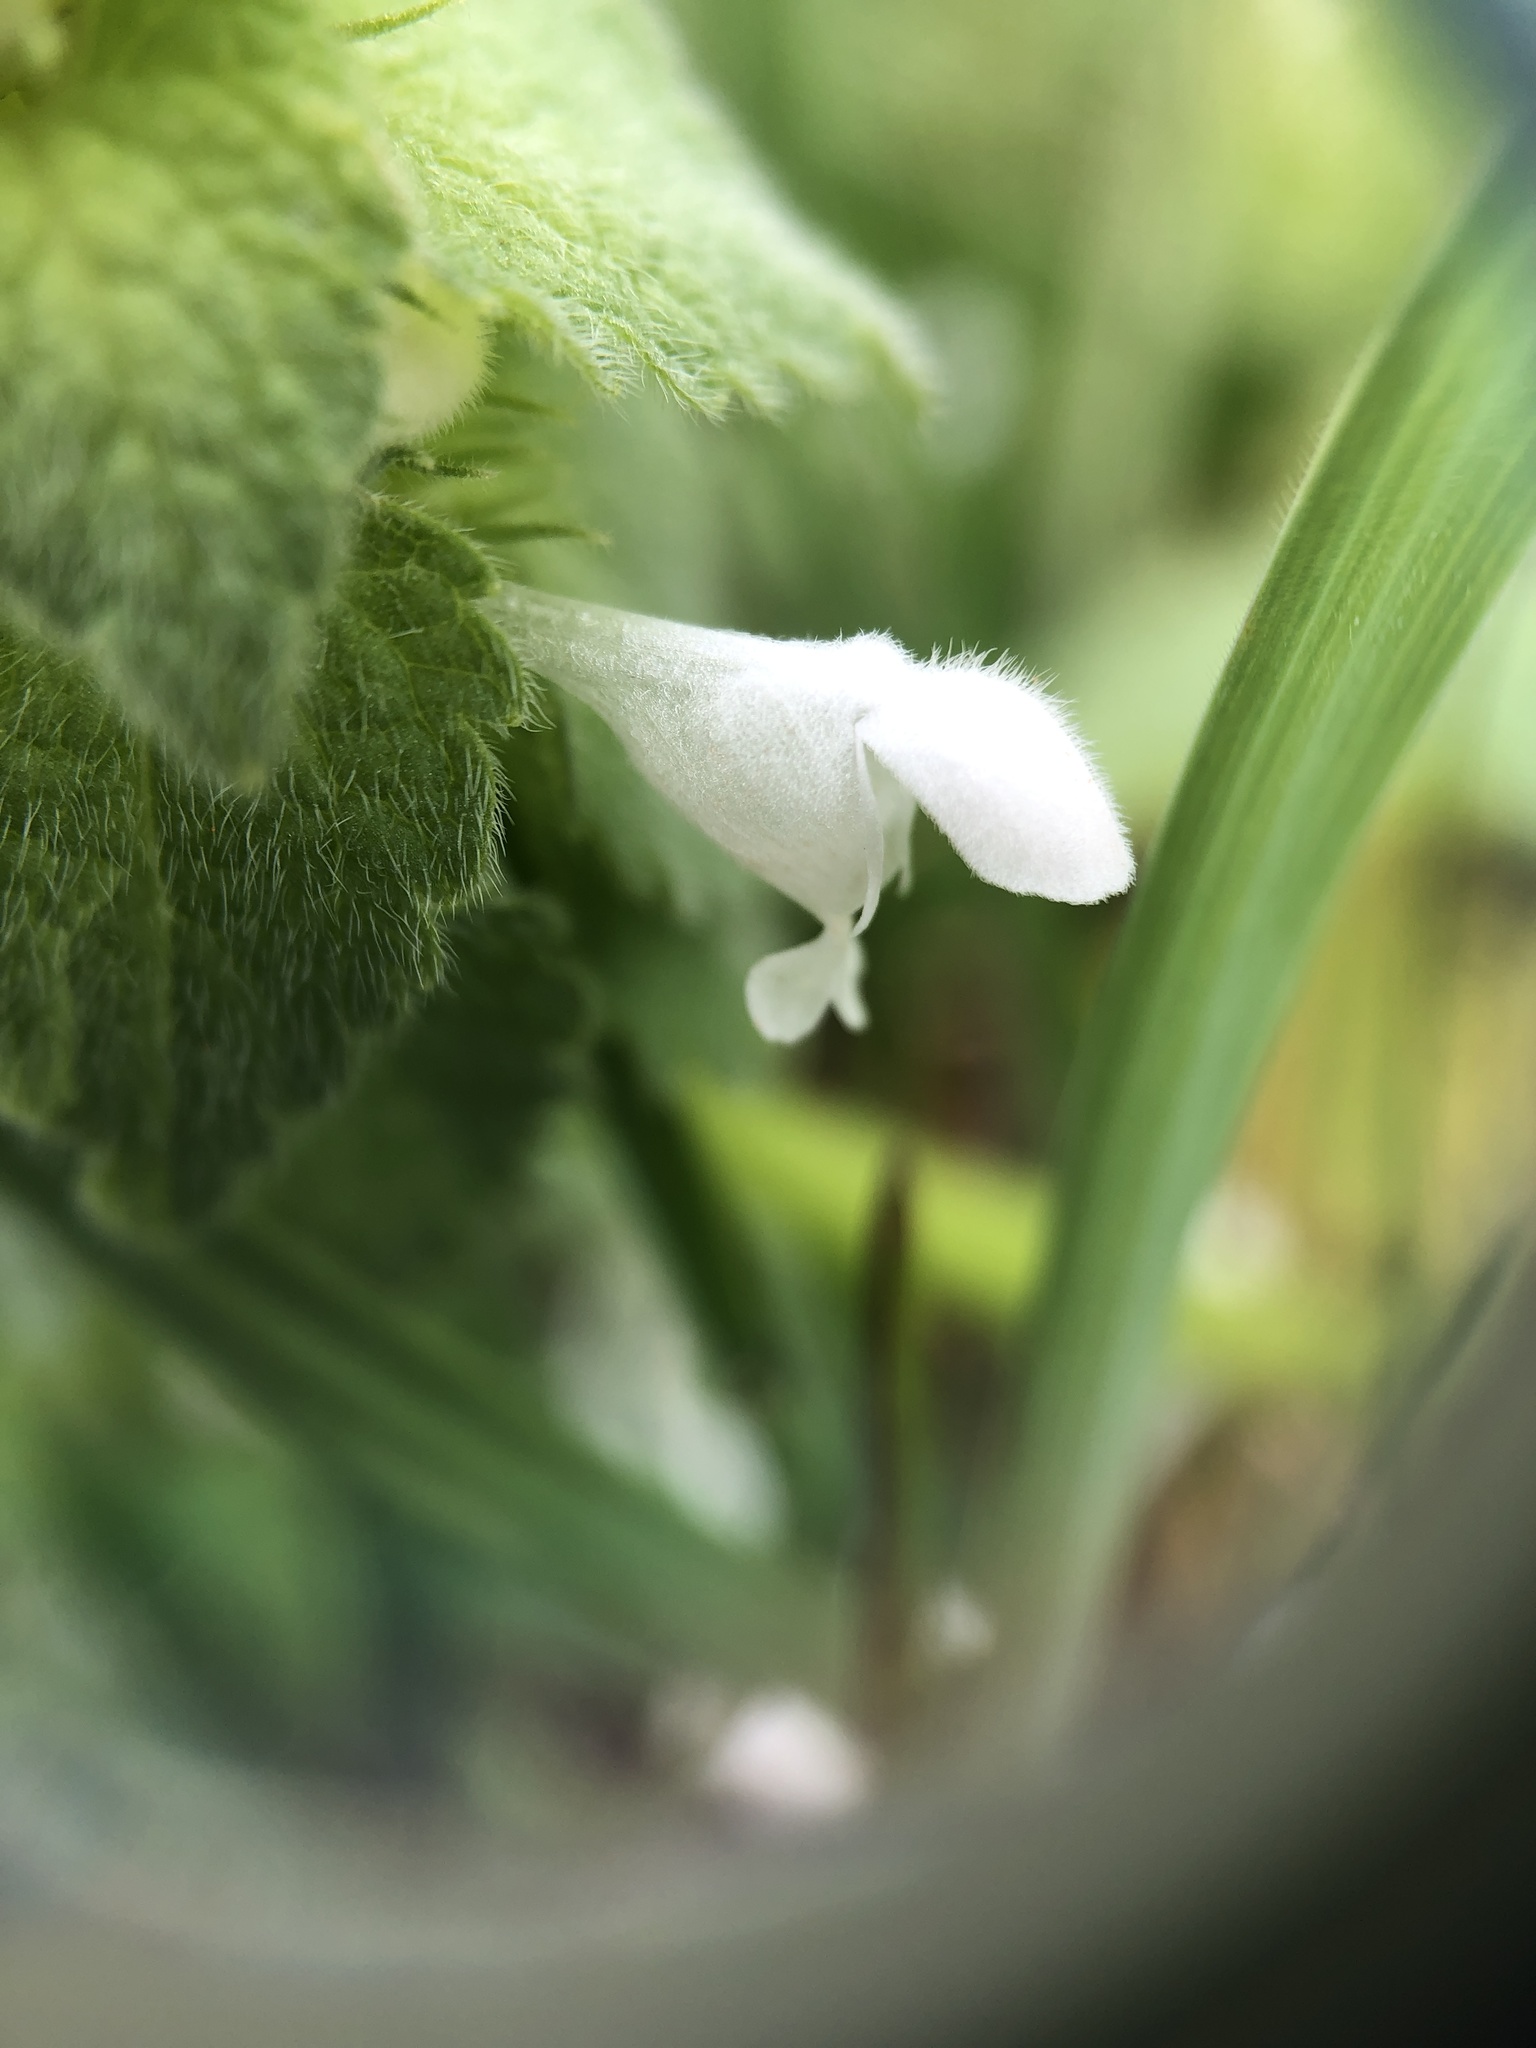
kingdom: Plantae
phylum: Tracheophyta
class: Magnoliopsida
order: Lamiales
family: Lamiaceae
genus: Lamium
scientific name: Lamium purpureum
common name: Red dead-nettle
